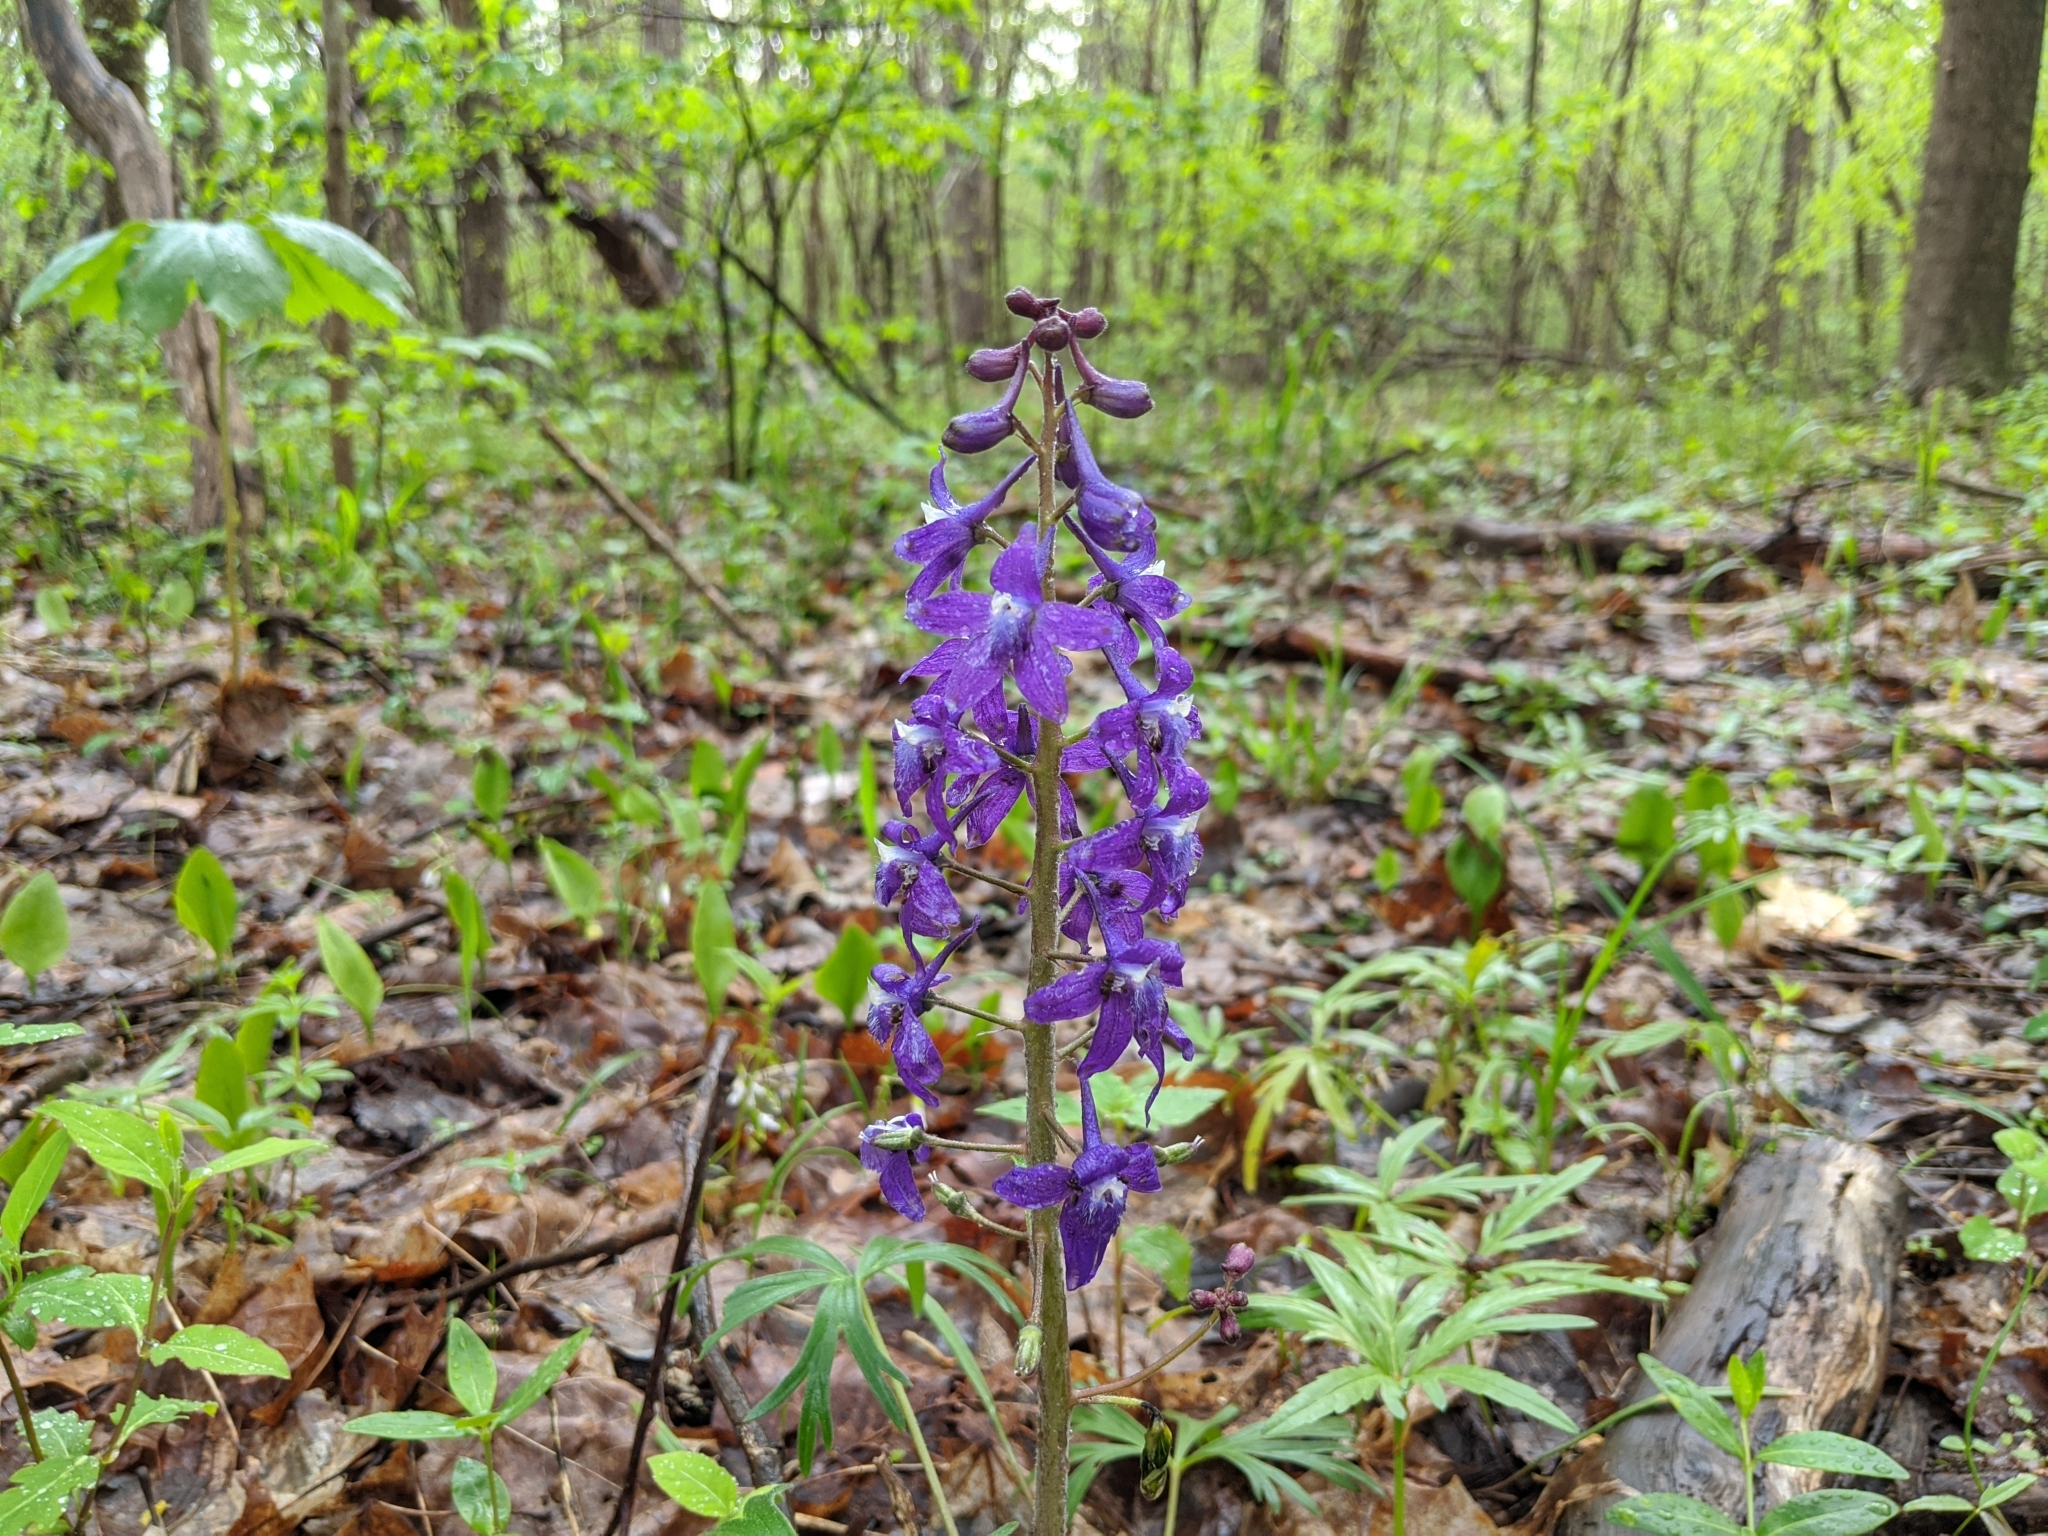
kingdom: Plantae
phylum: Tracheophyta
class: Magnoliopsida
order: Ranunculales
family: Ranunculaceae
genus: Delphinium
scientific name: Delphinium tricorne
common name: Dwarf larkspur
